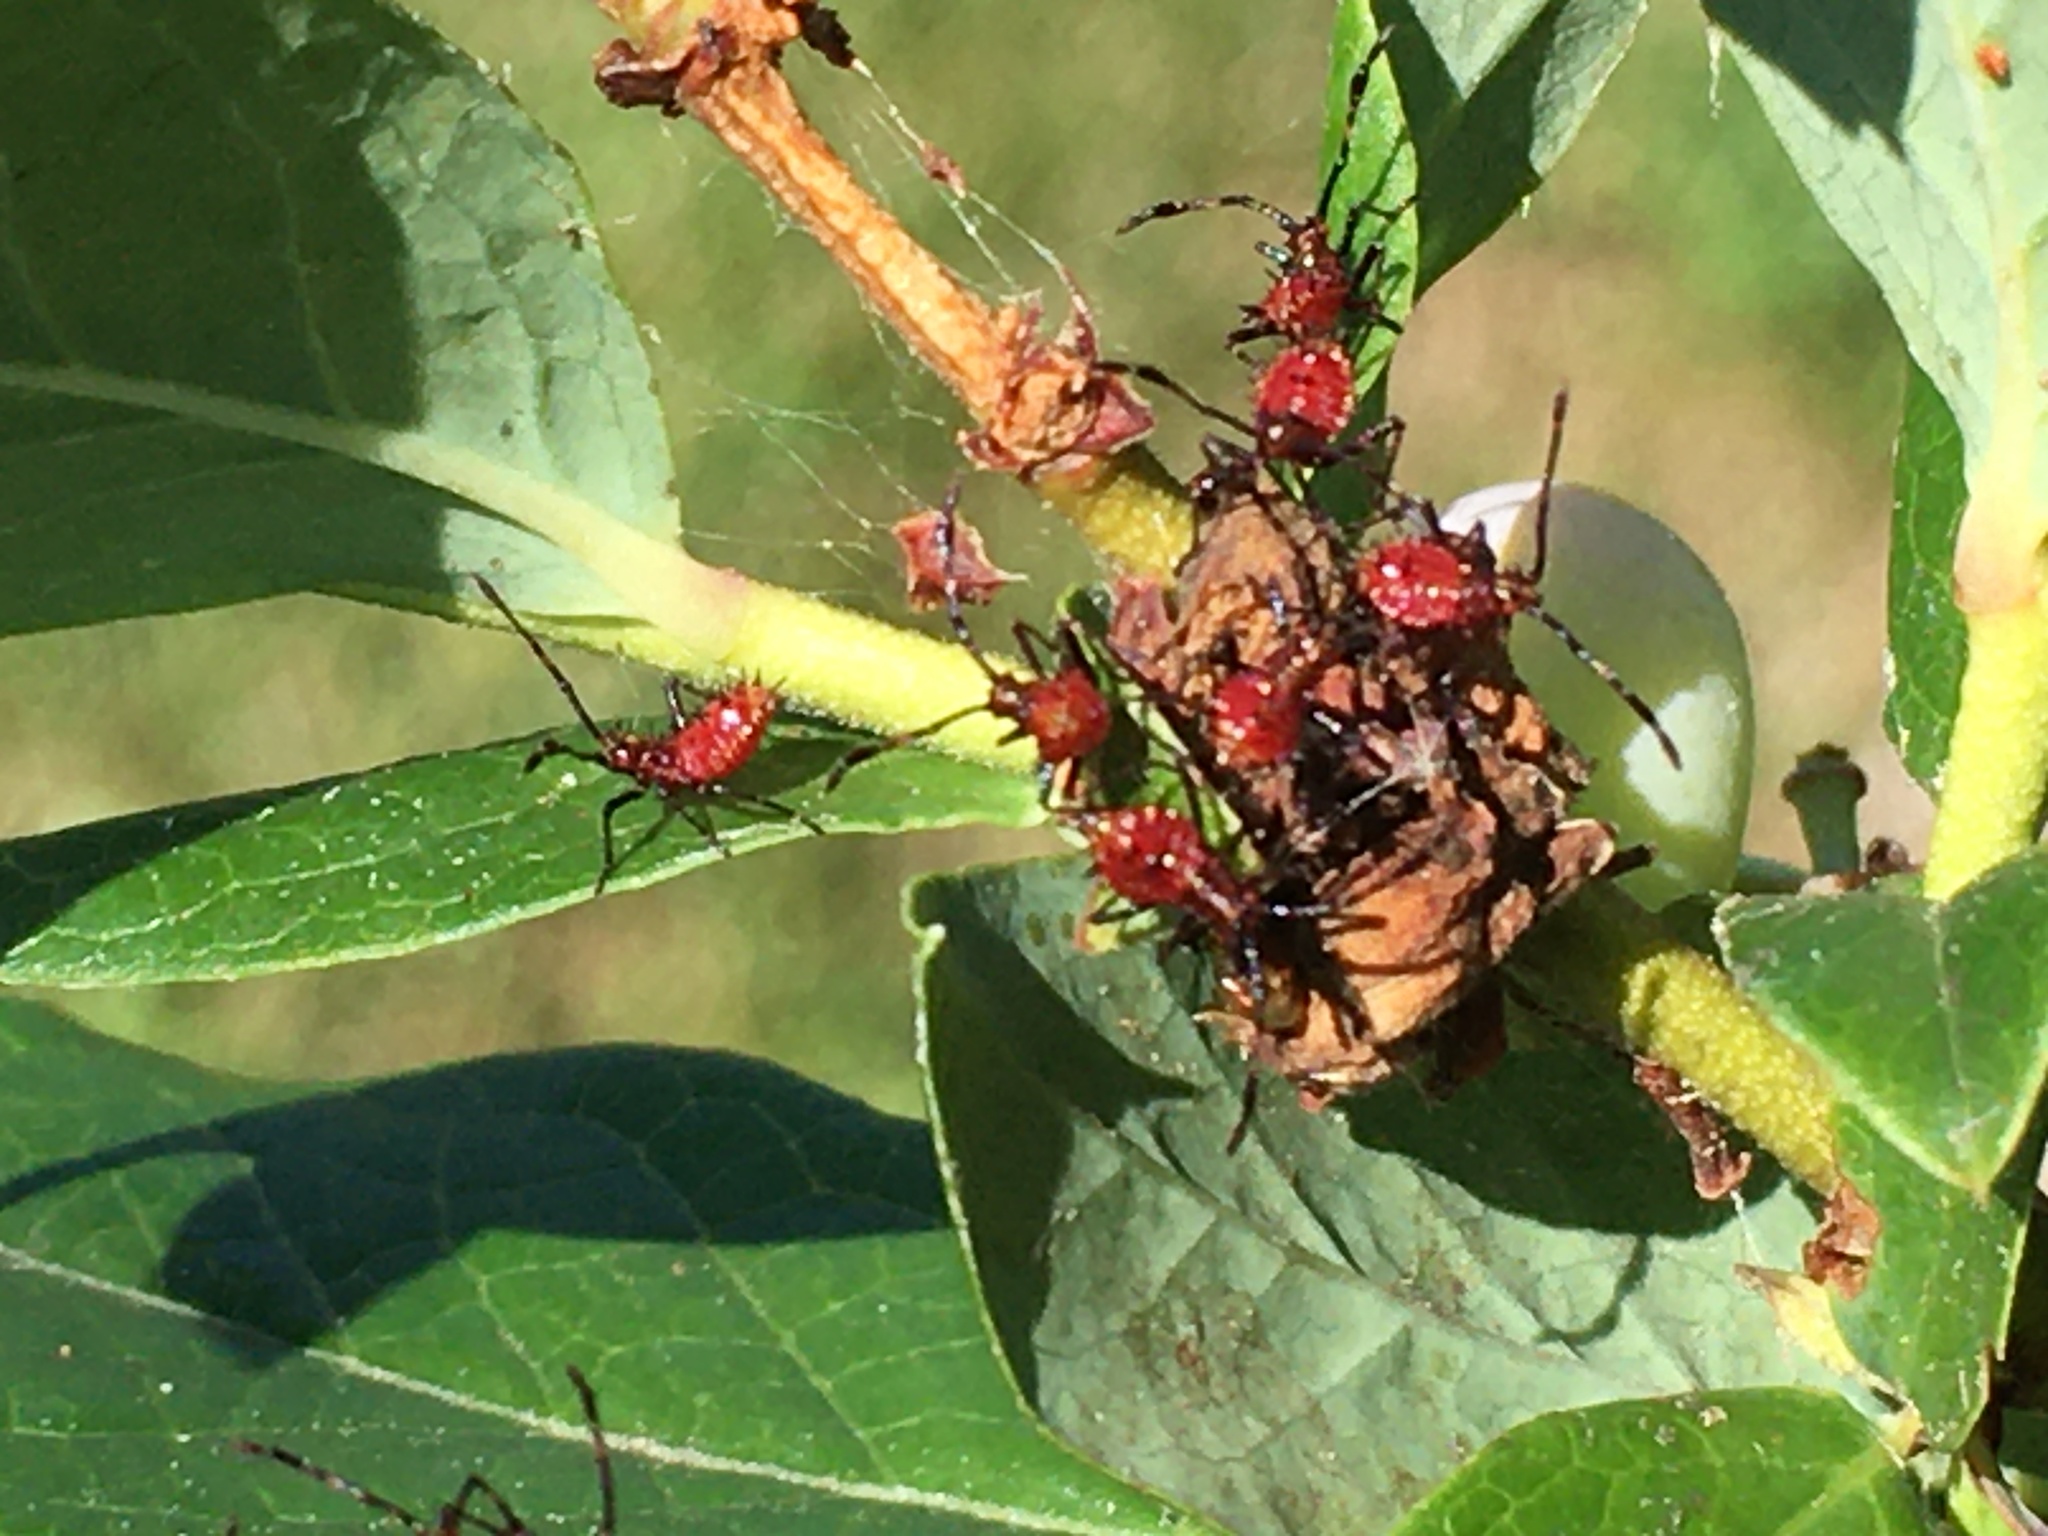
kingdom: Animalia
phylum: Arthropoda
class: Insecta
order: Hemiptera
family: Coreidae
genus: Euthochtha
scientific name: Euthochtha galeator
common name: Helmeted squash bug
